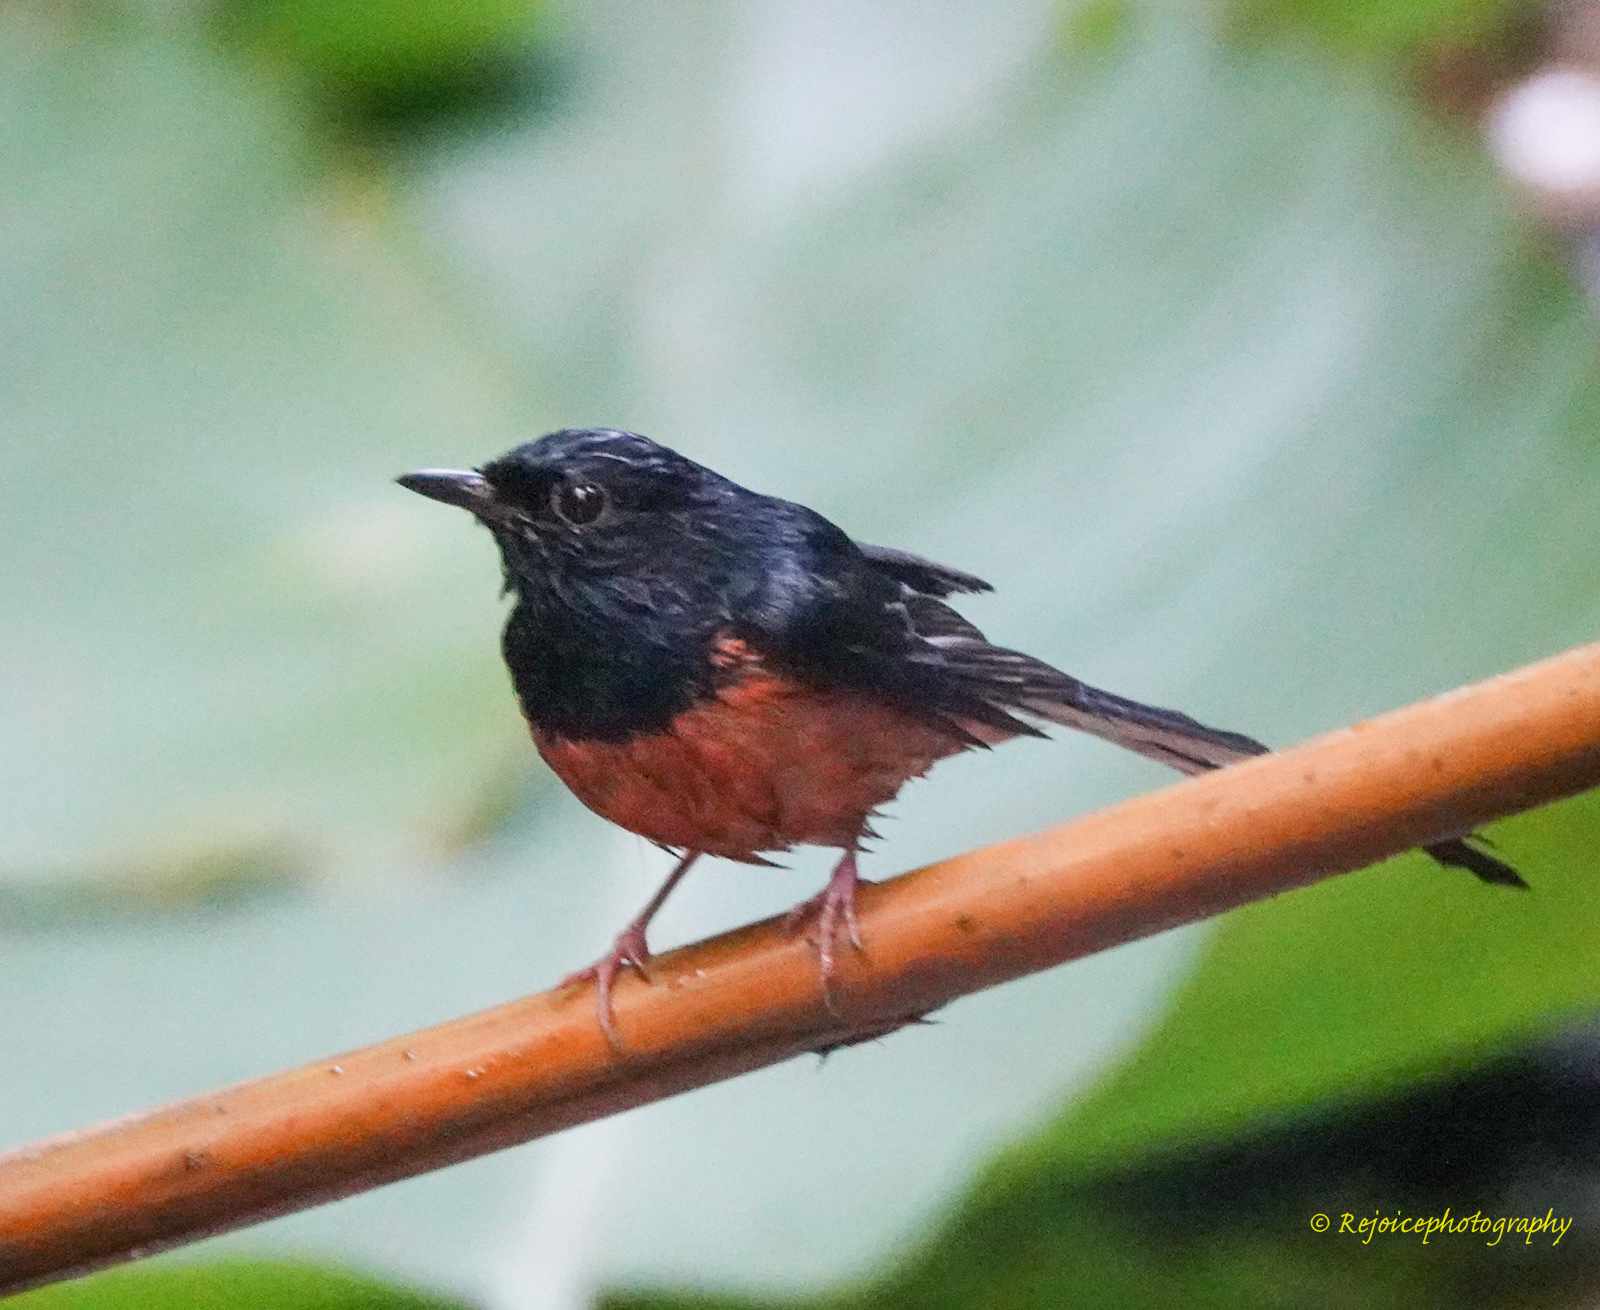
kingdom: Animalia
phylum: Chordata
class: Aves
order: Passeriformes
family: Muscicapidae
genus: Copsychus
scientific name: Copsychus malabaricus
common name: White-rumped shama
